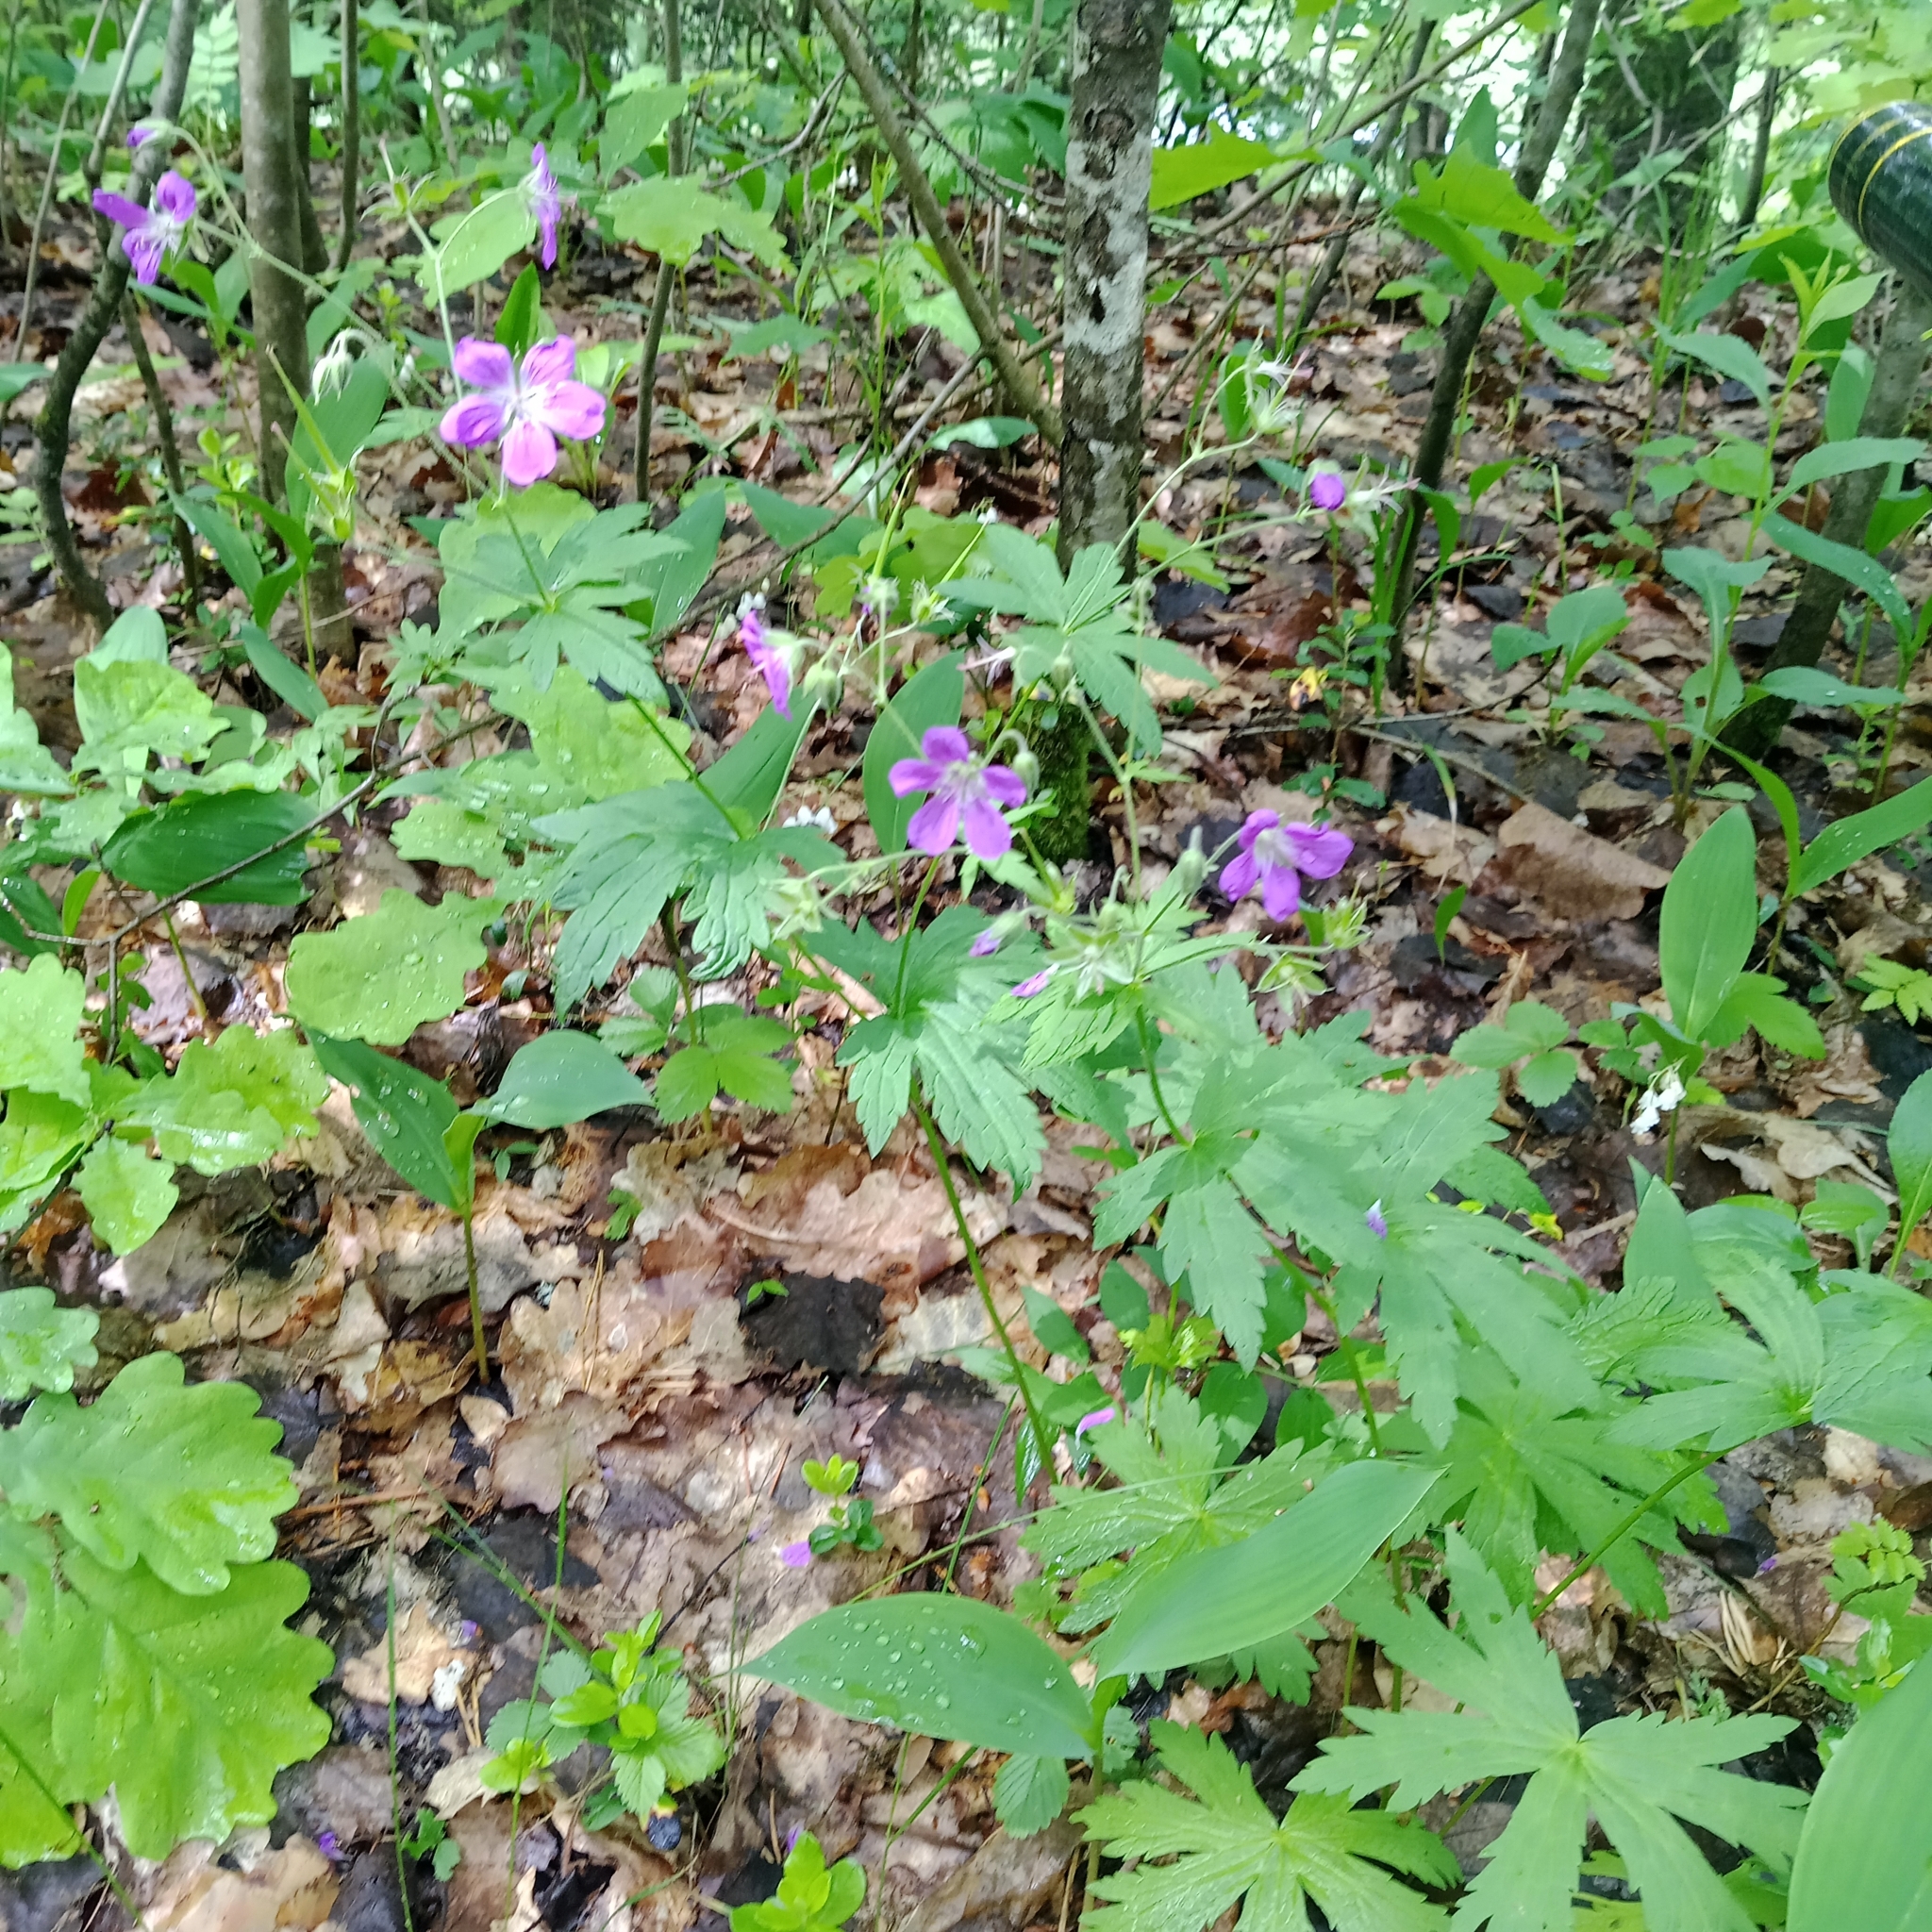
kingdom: Plantae
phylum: Tracheophyta
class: Magnoliopsida
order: Geraniales
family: Geraniaceae
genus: Geranium
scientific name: Geranium sylvaticum
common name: Wood crane's-bill
